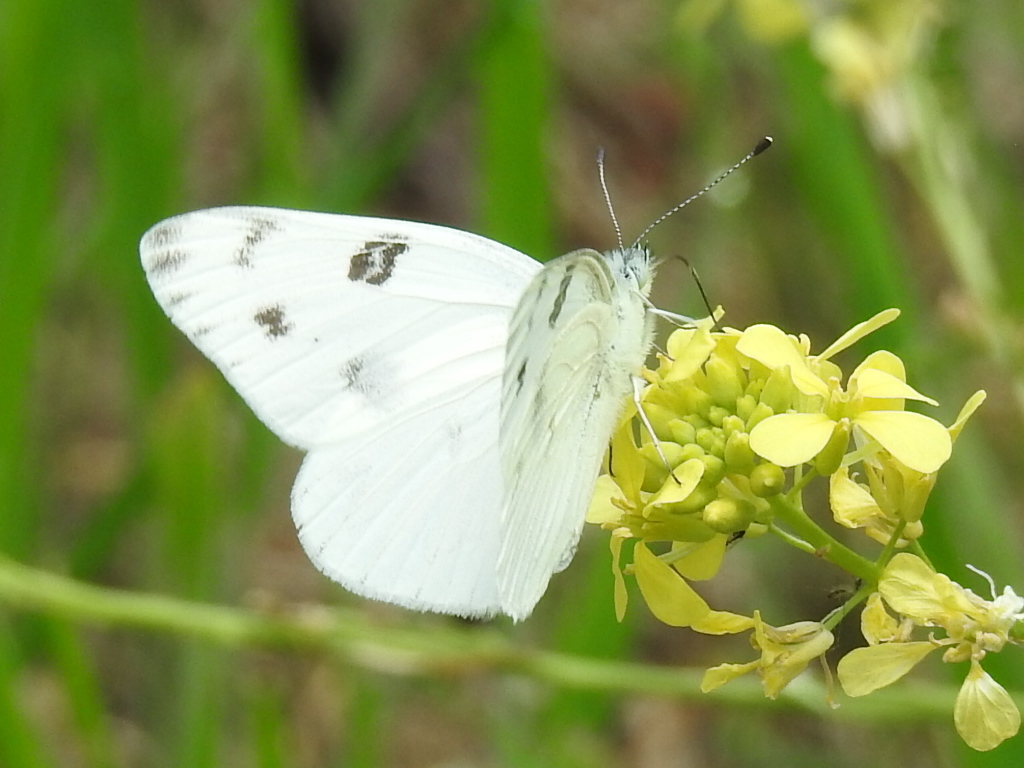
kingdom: Animalia
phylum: Arthropoda
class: Insecta
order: Lepidoptera
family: Pieridae
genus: Pontia
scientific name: Pontia protodice
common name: Checkered white
